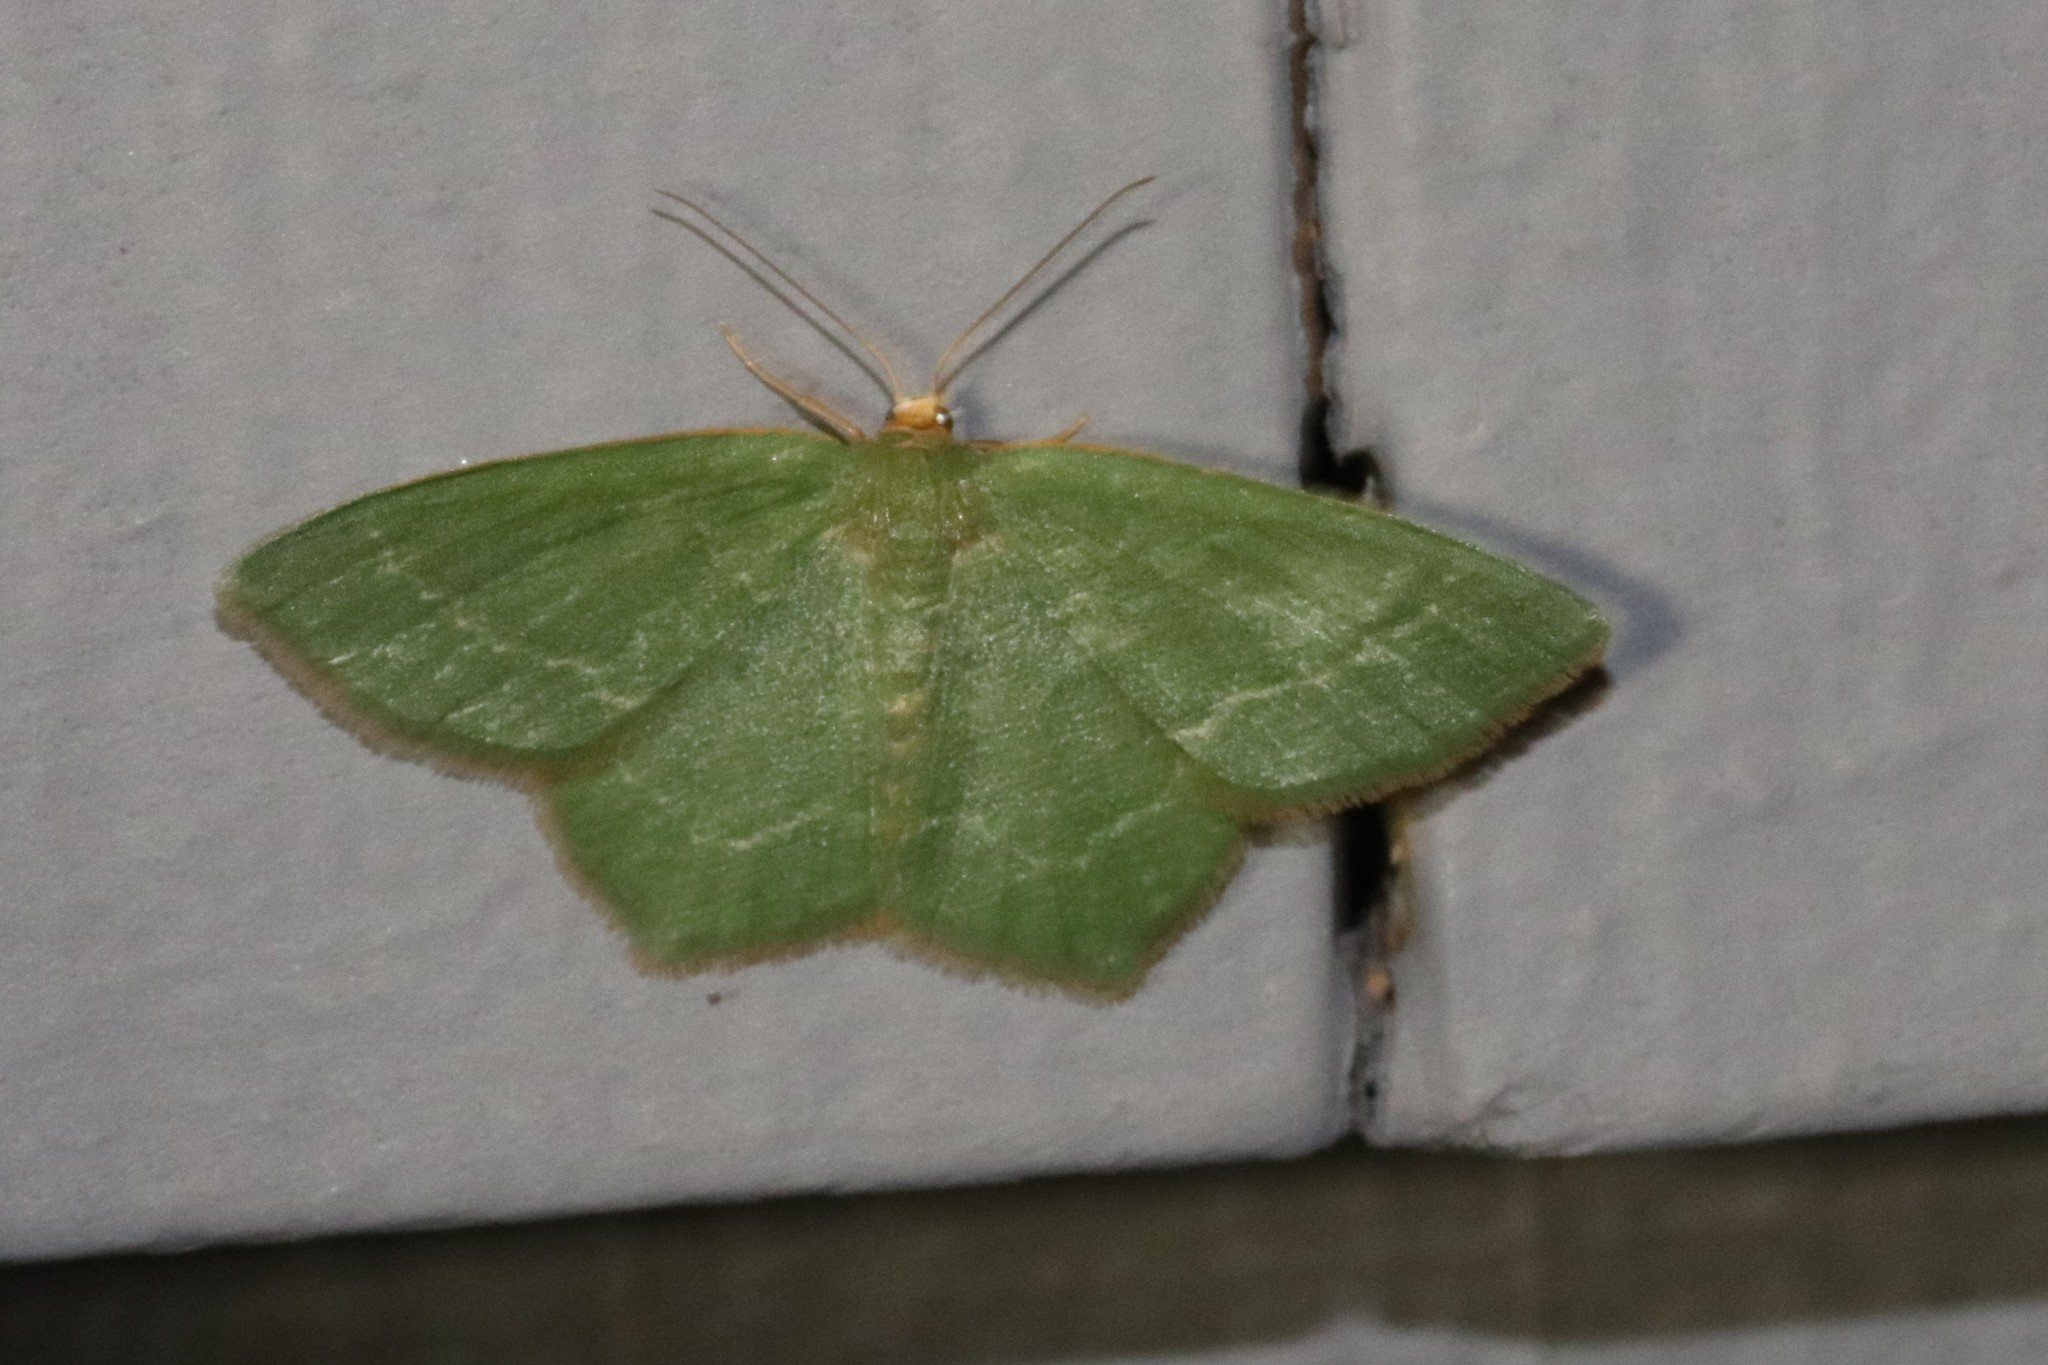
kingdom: Animalia
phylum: Arthropoda
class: Insecta
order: Lepidoptera
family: Geometridae
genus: Thalera
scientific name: Thalera pistasciaria
